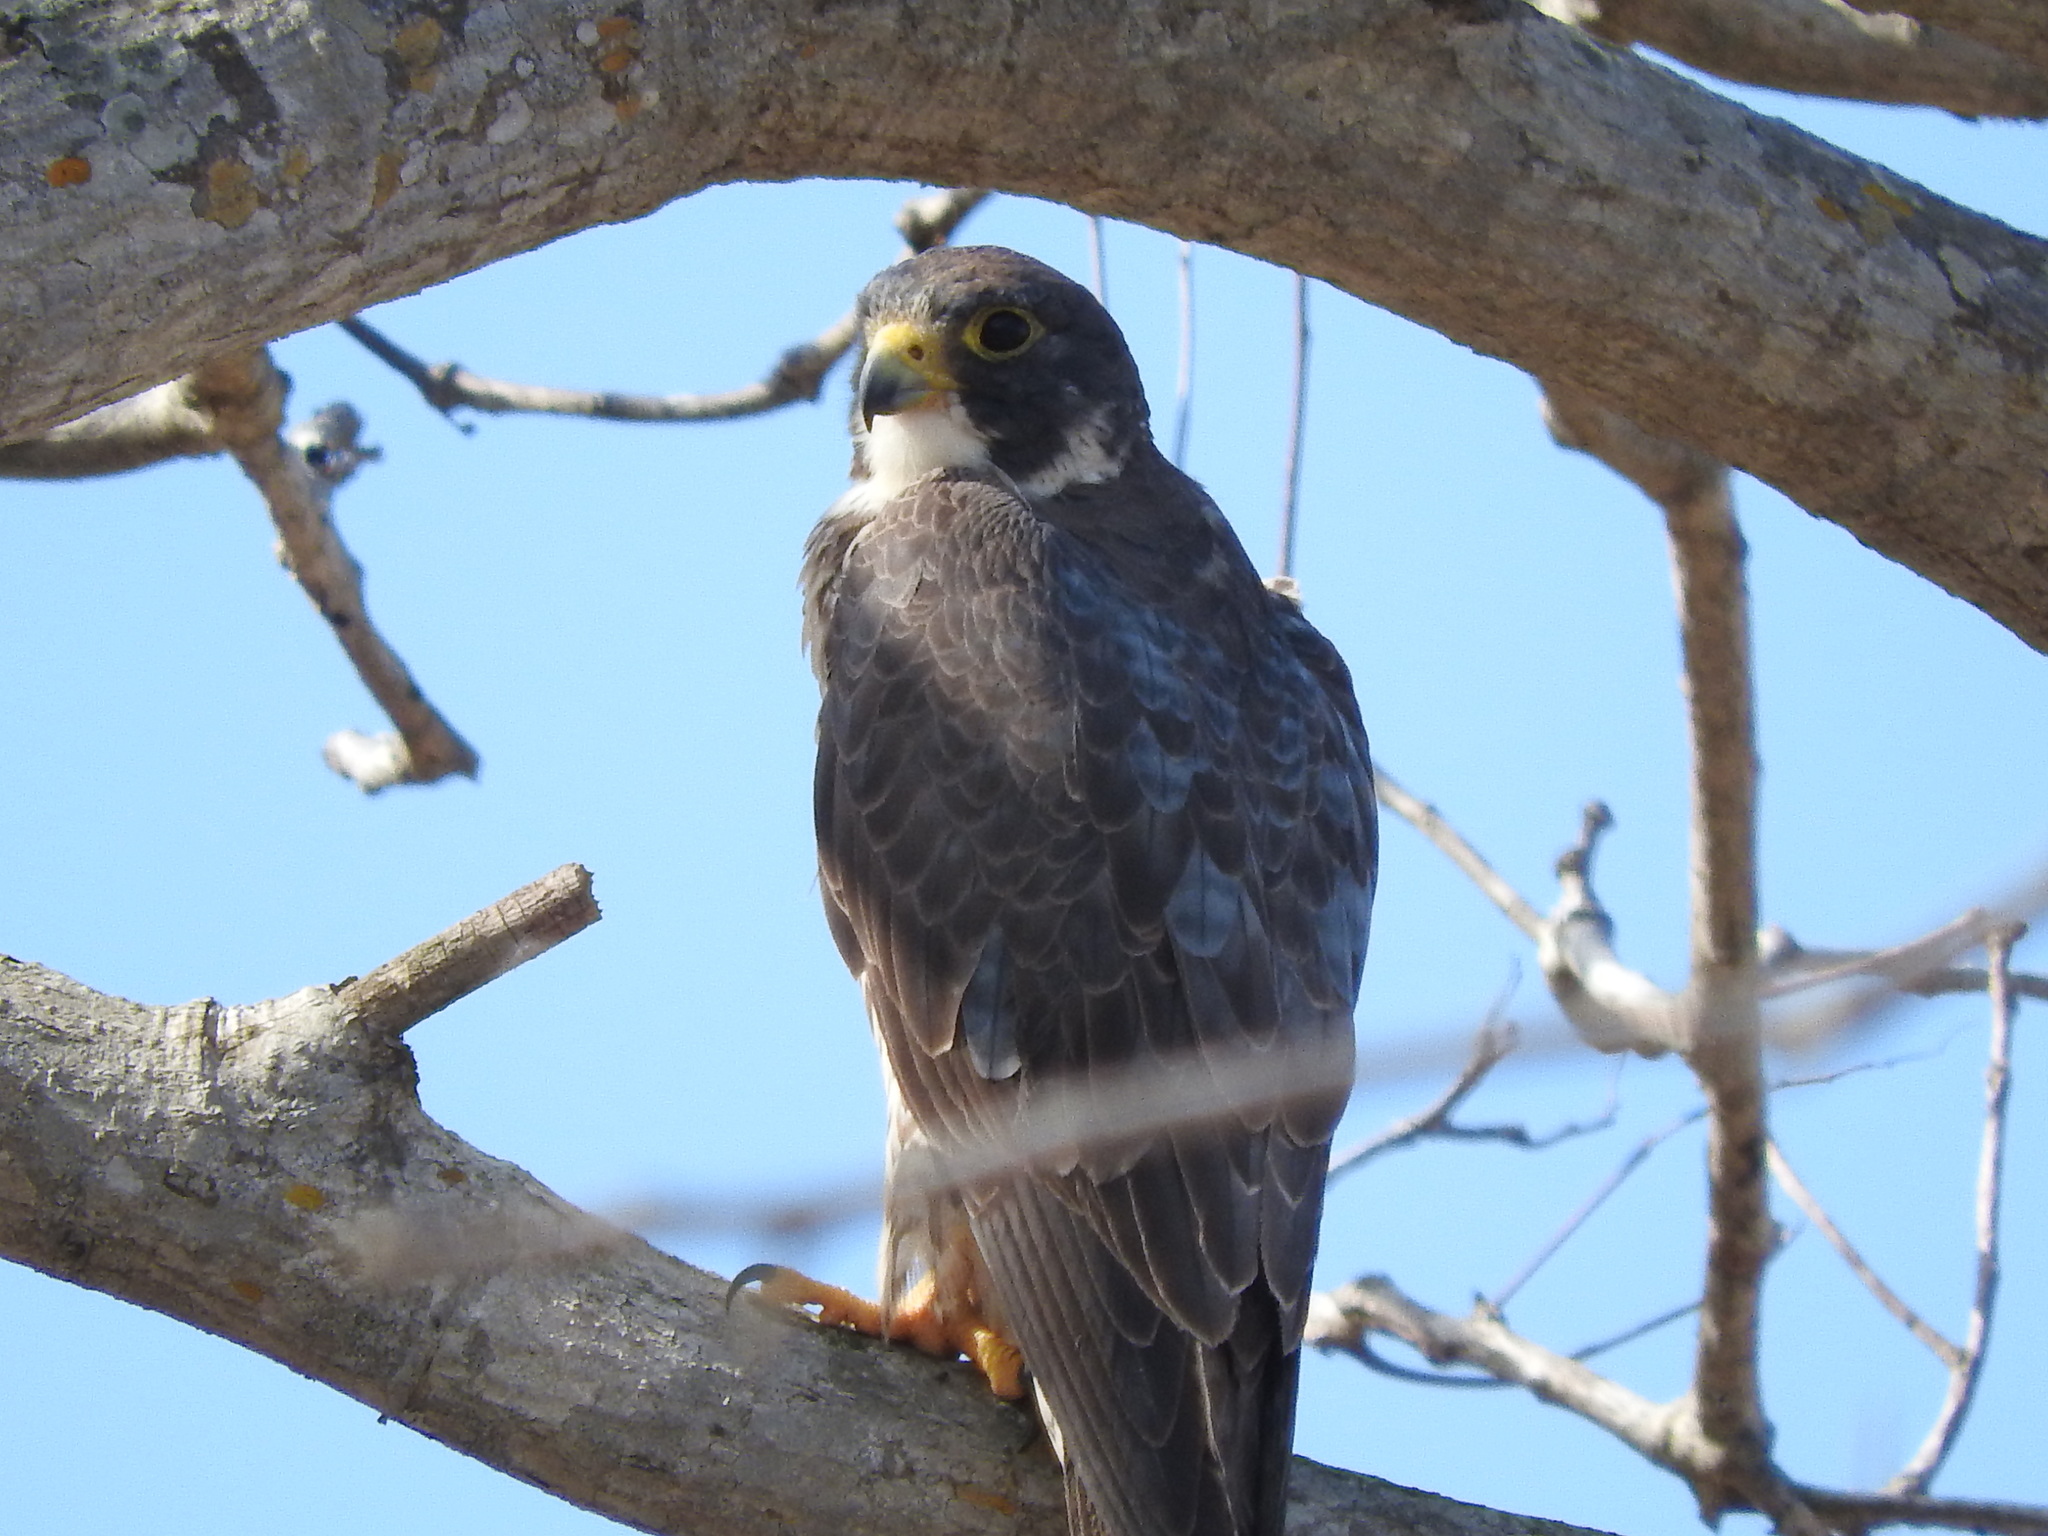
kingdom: Animalia
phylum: Chordata
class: Aves
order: Falconiformes
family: Falconidae
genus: Falco
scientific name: Falco peregrinus
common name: Peregrine falcon
